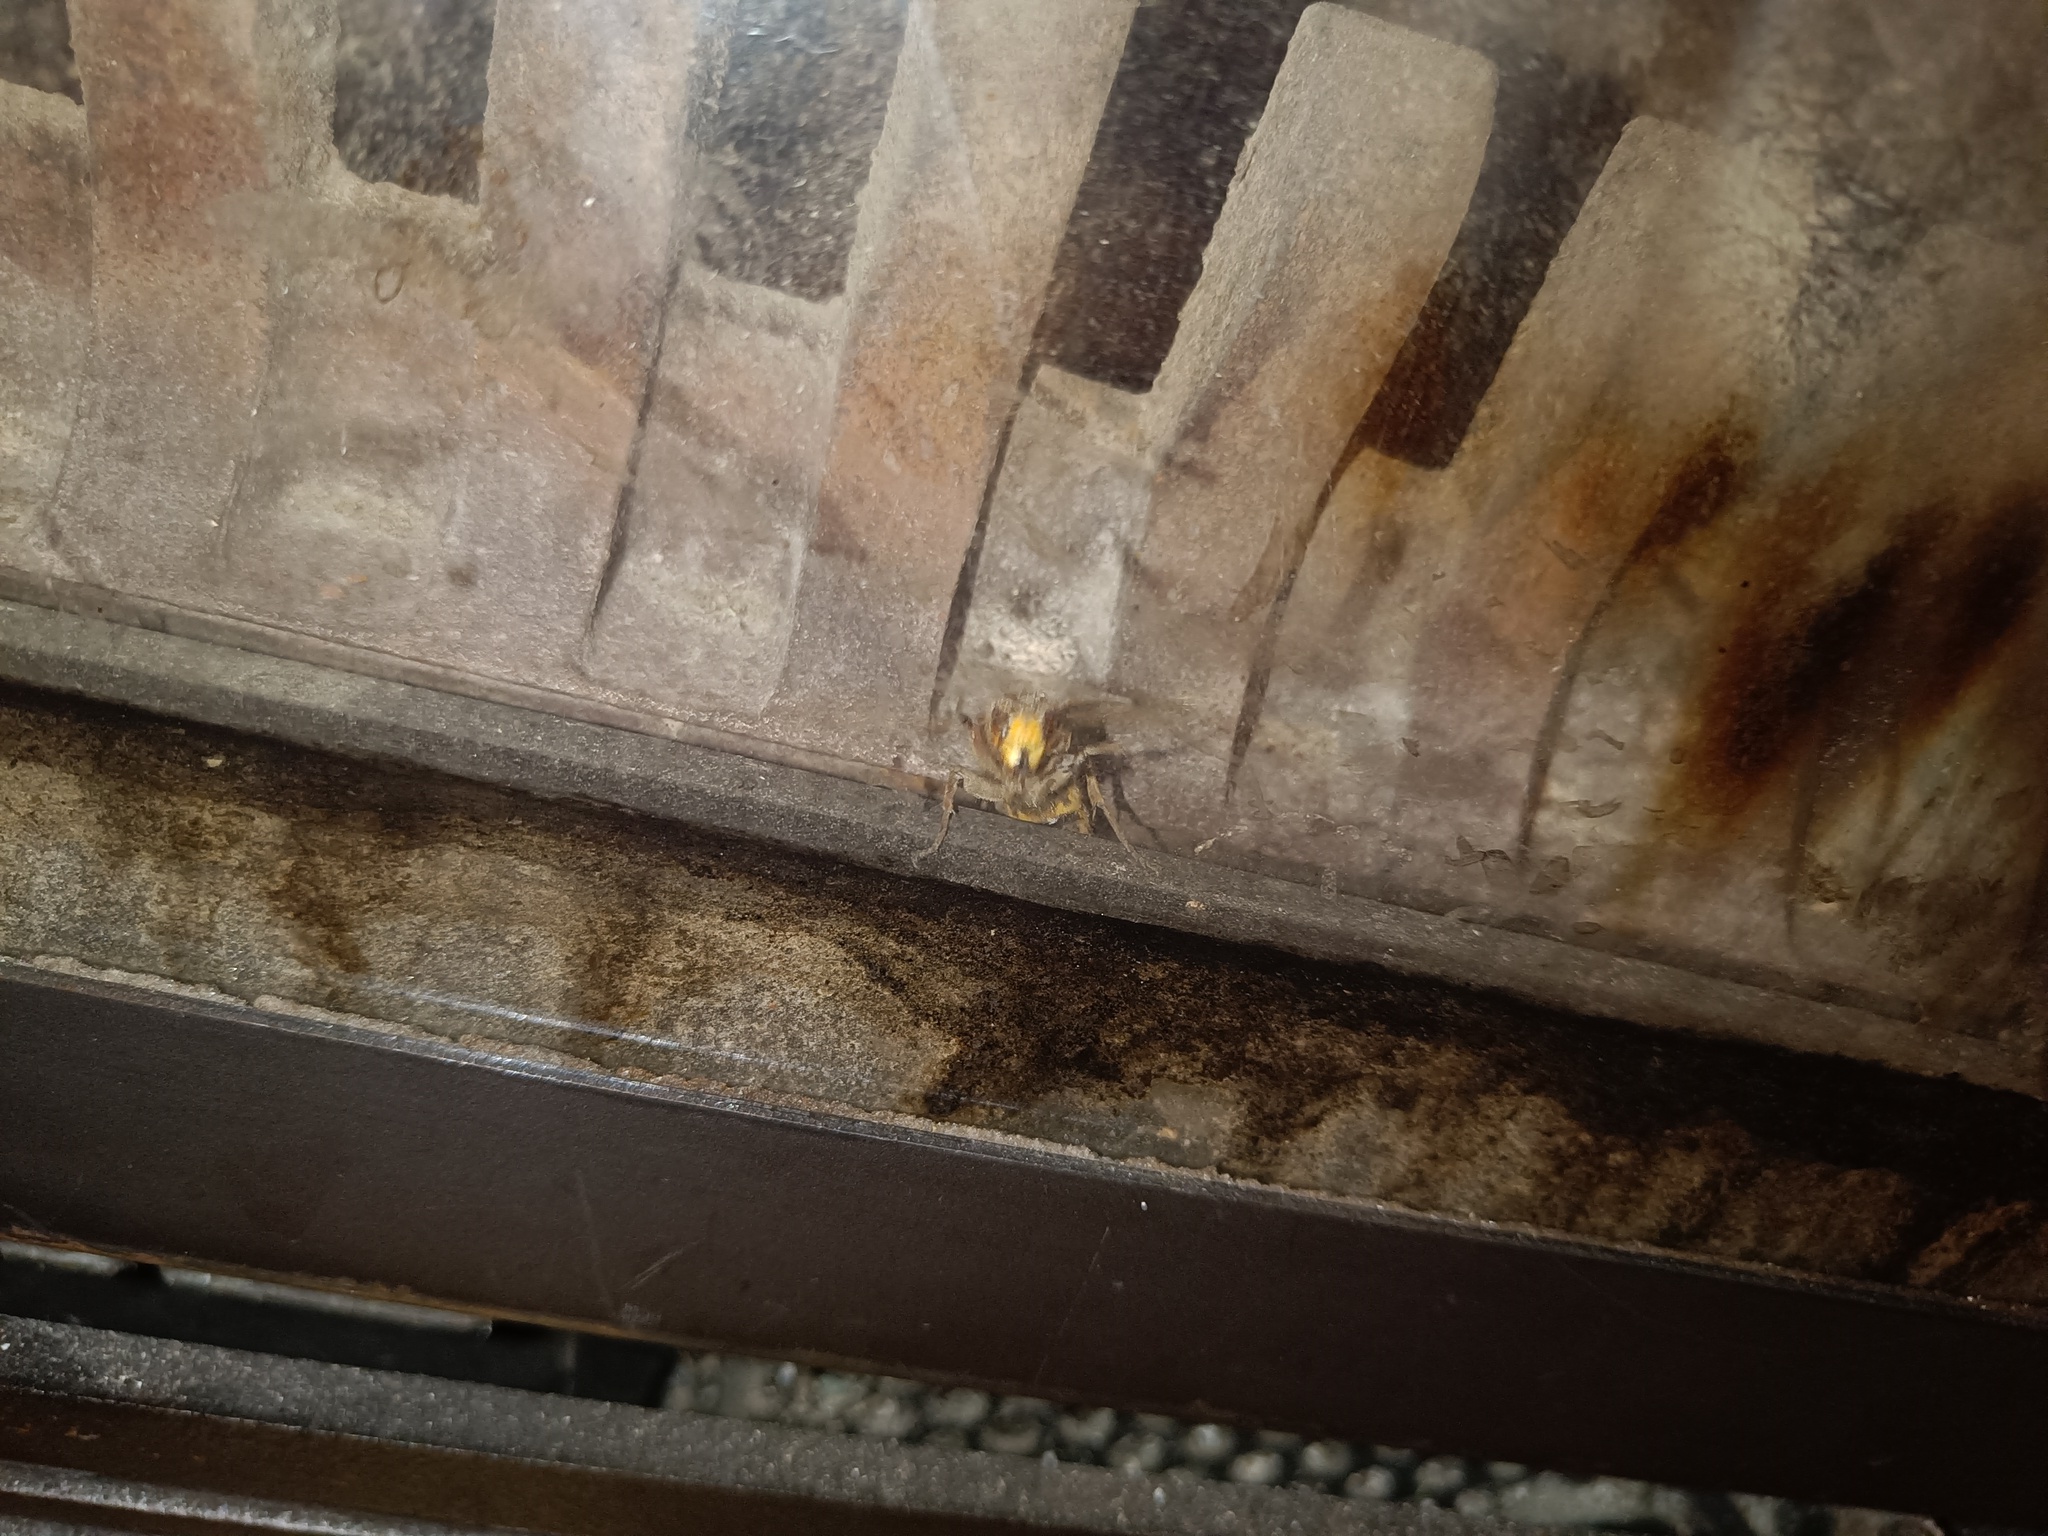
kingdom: Animalia
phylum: Arthropoda
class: Insecta
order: Hymenoptera
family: Vespidae
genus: Vespa
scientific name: Vespa crabro
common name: Hornet
